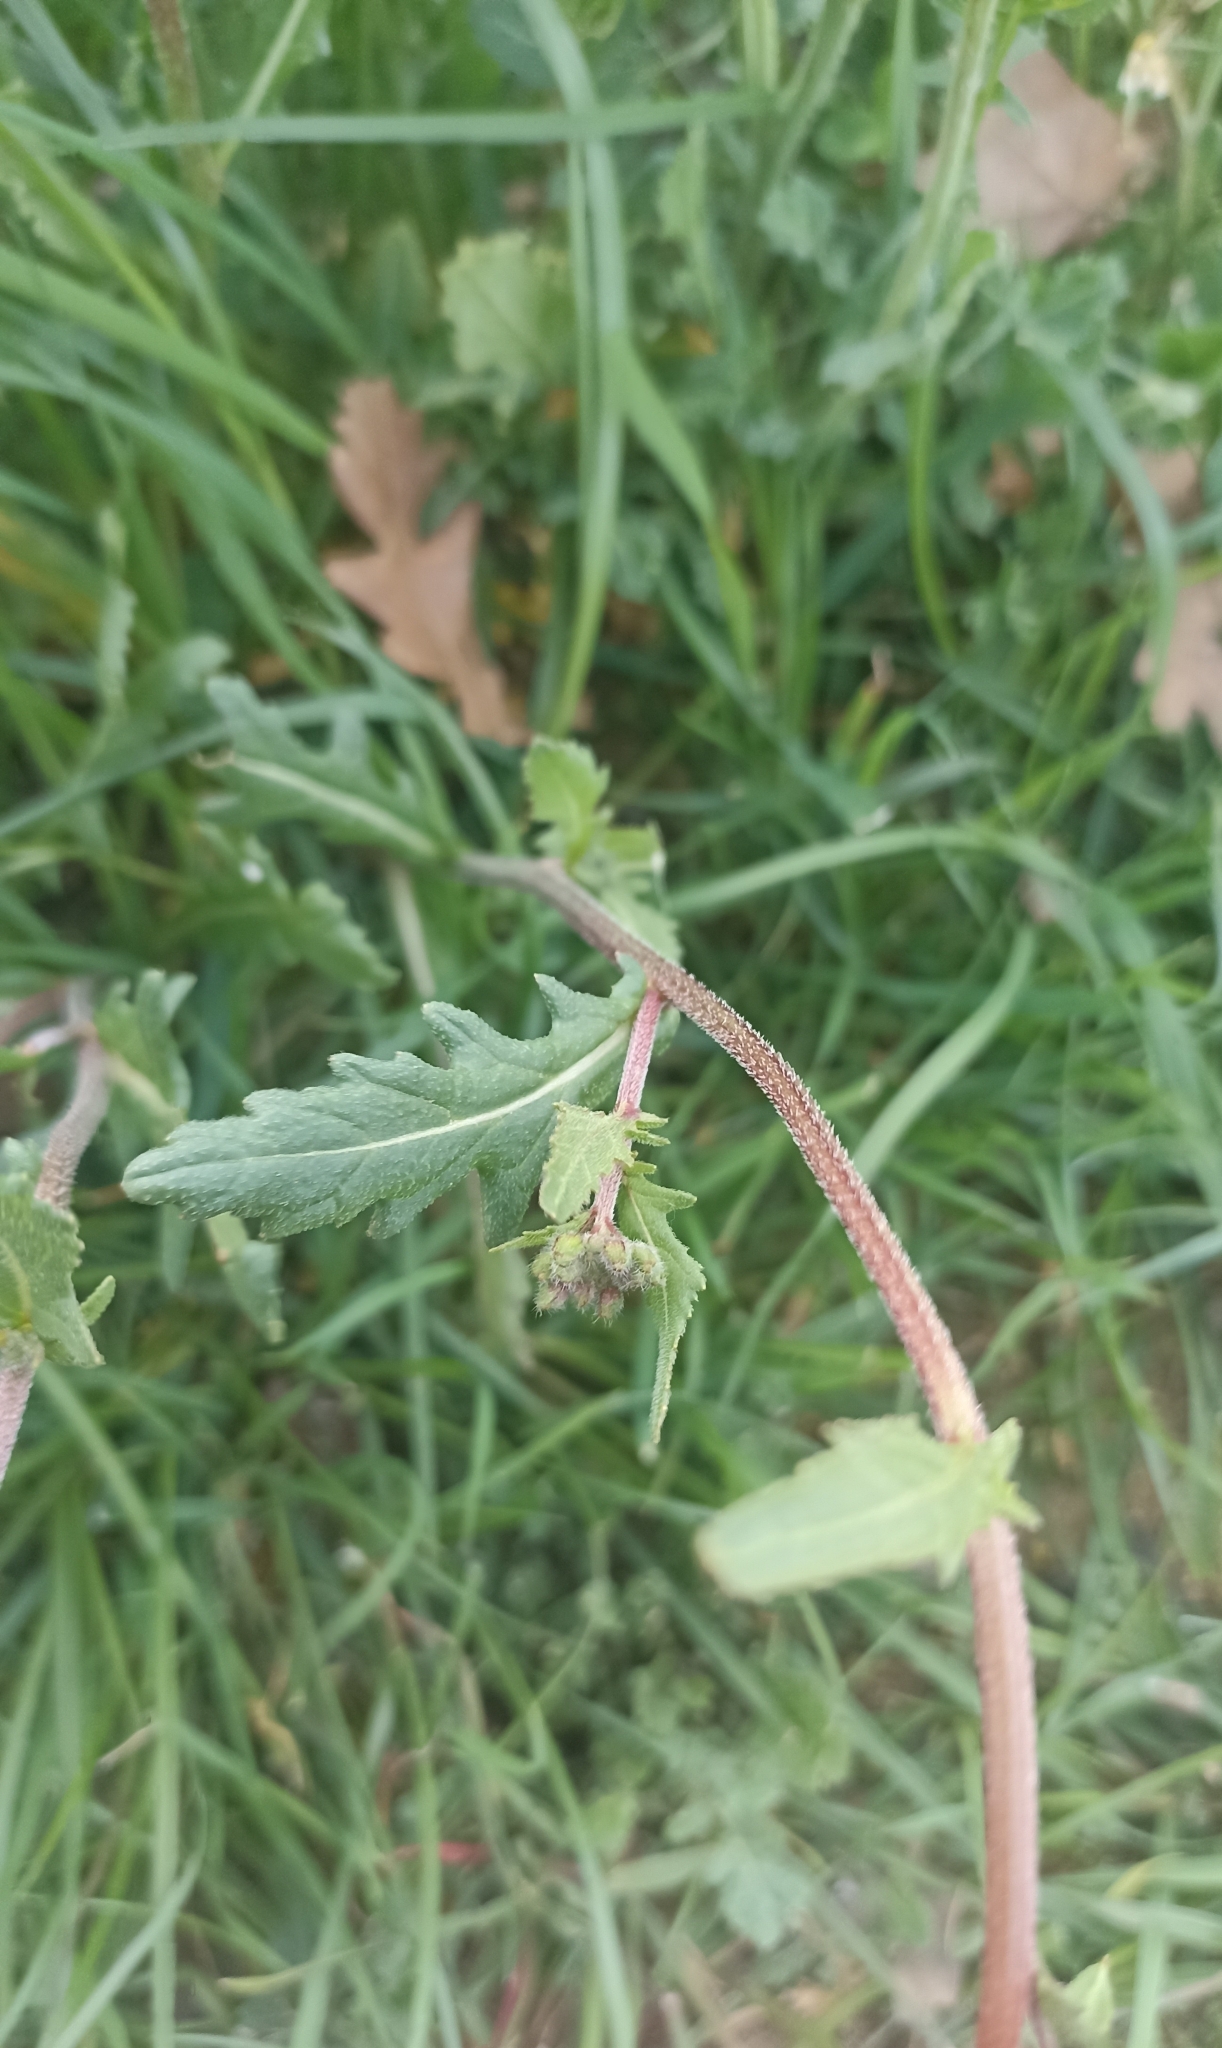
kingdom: Plantae
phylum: Tracheophyta
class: Magnoliopsida
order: Brassicales
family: Brassicaceae
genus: Diplotaxis
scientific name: Diplotaxis erucoides
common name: White rocket
